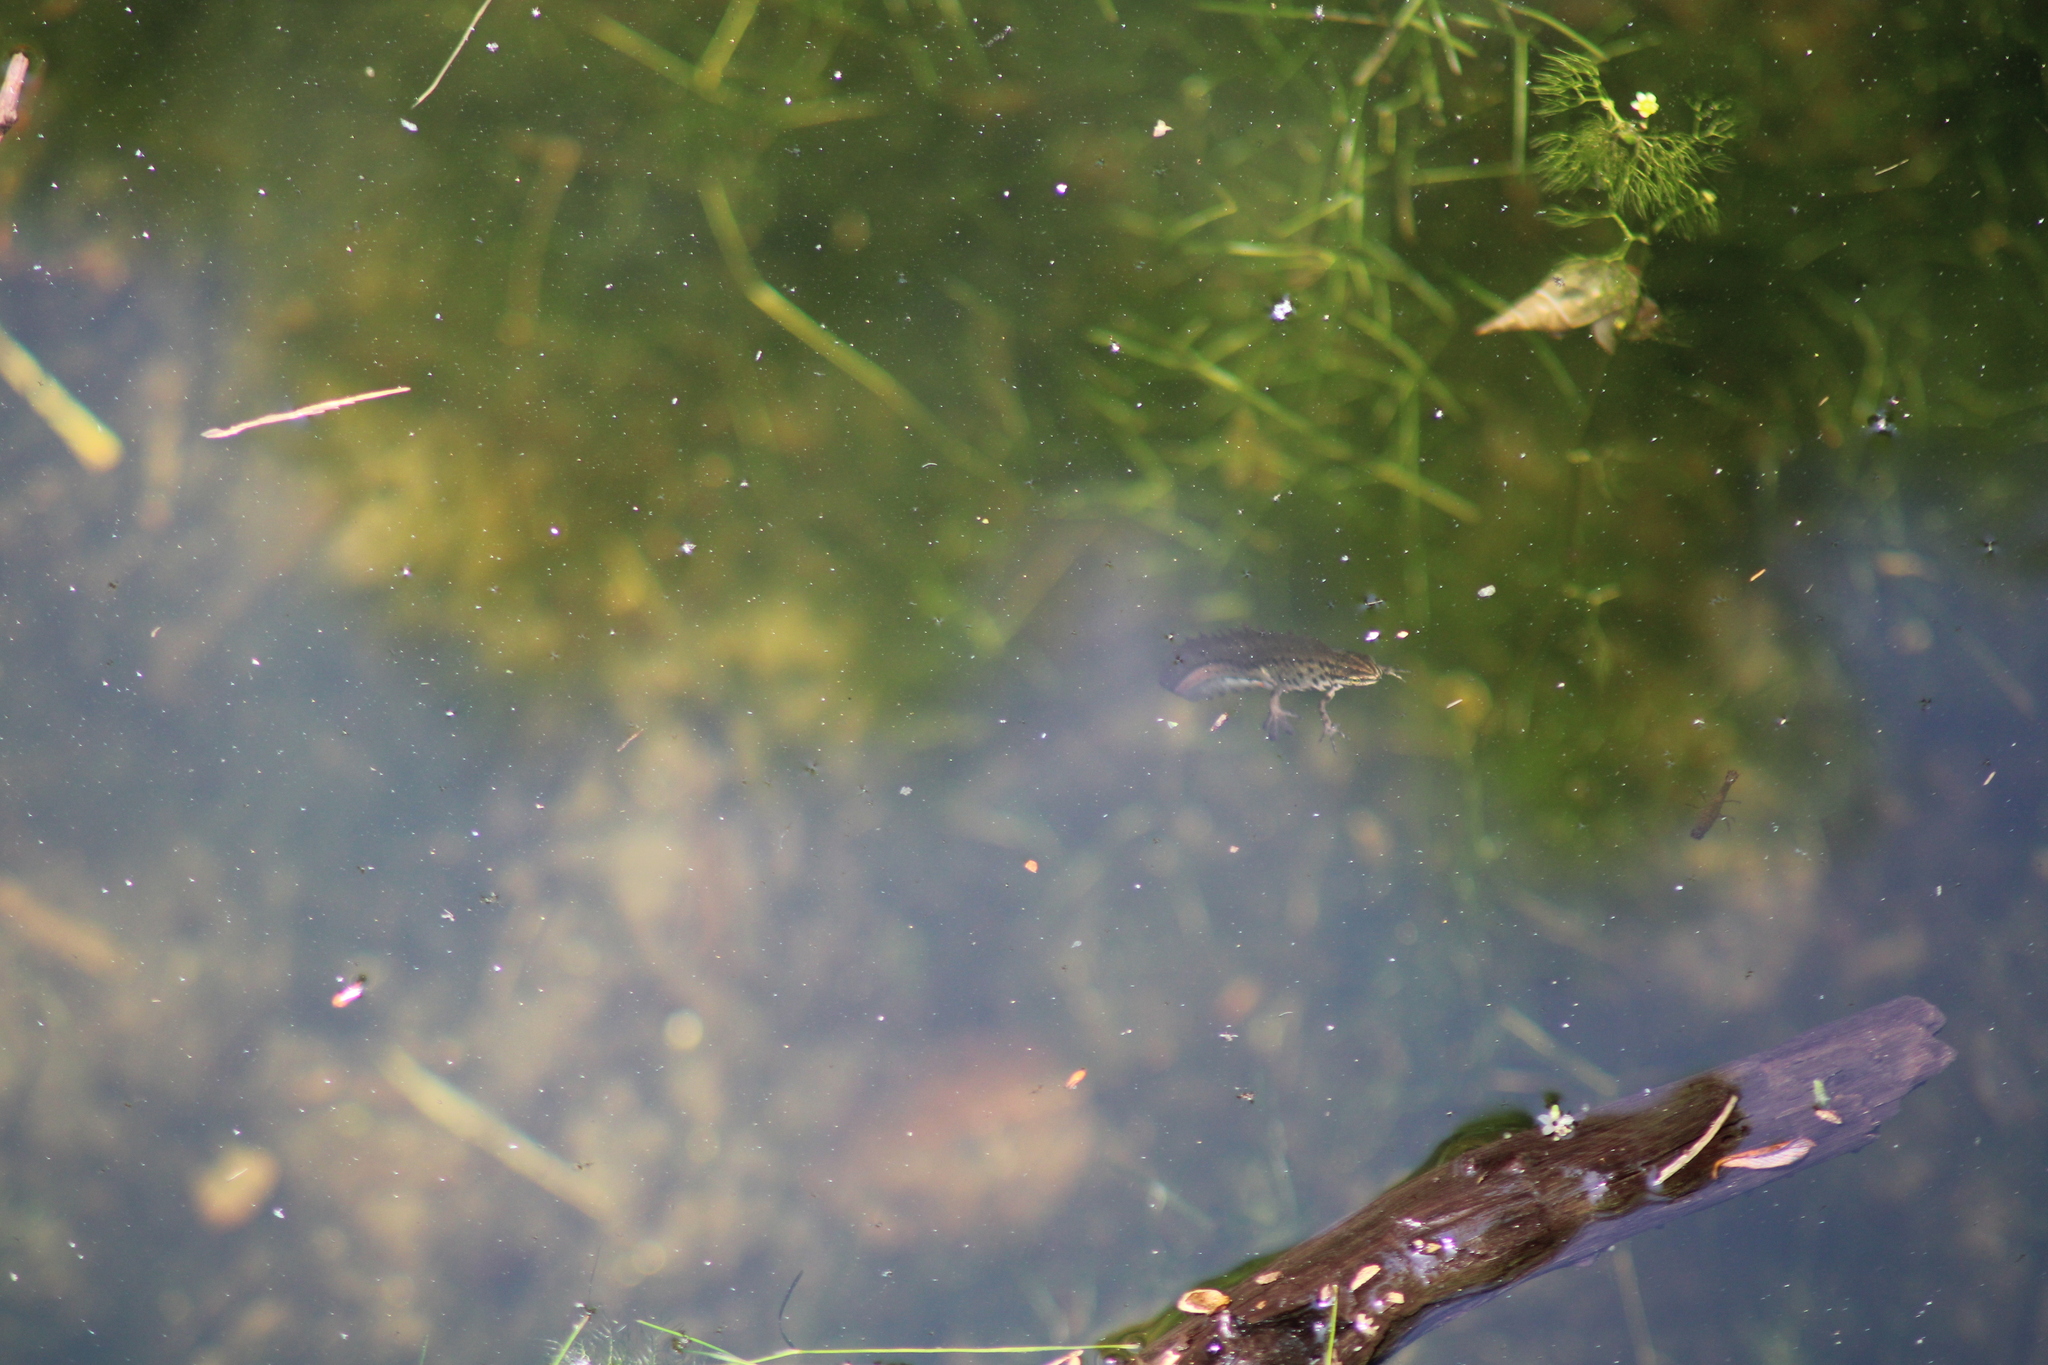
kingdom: Animalia
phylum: Chordata
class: Amphibia
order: Caudata
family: Salamandridae
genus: Lissotriton
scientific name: Lissotriton vulgaris
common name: Smooth newt
